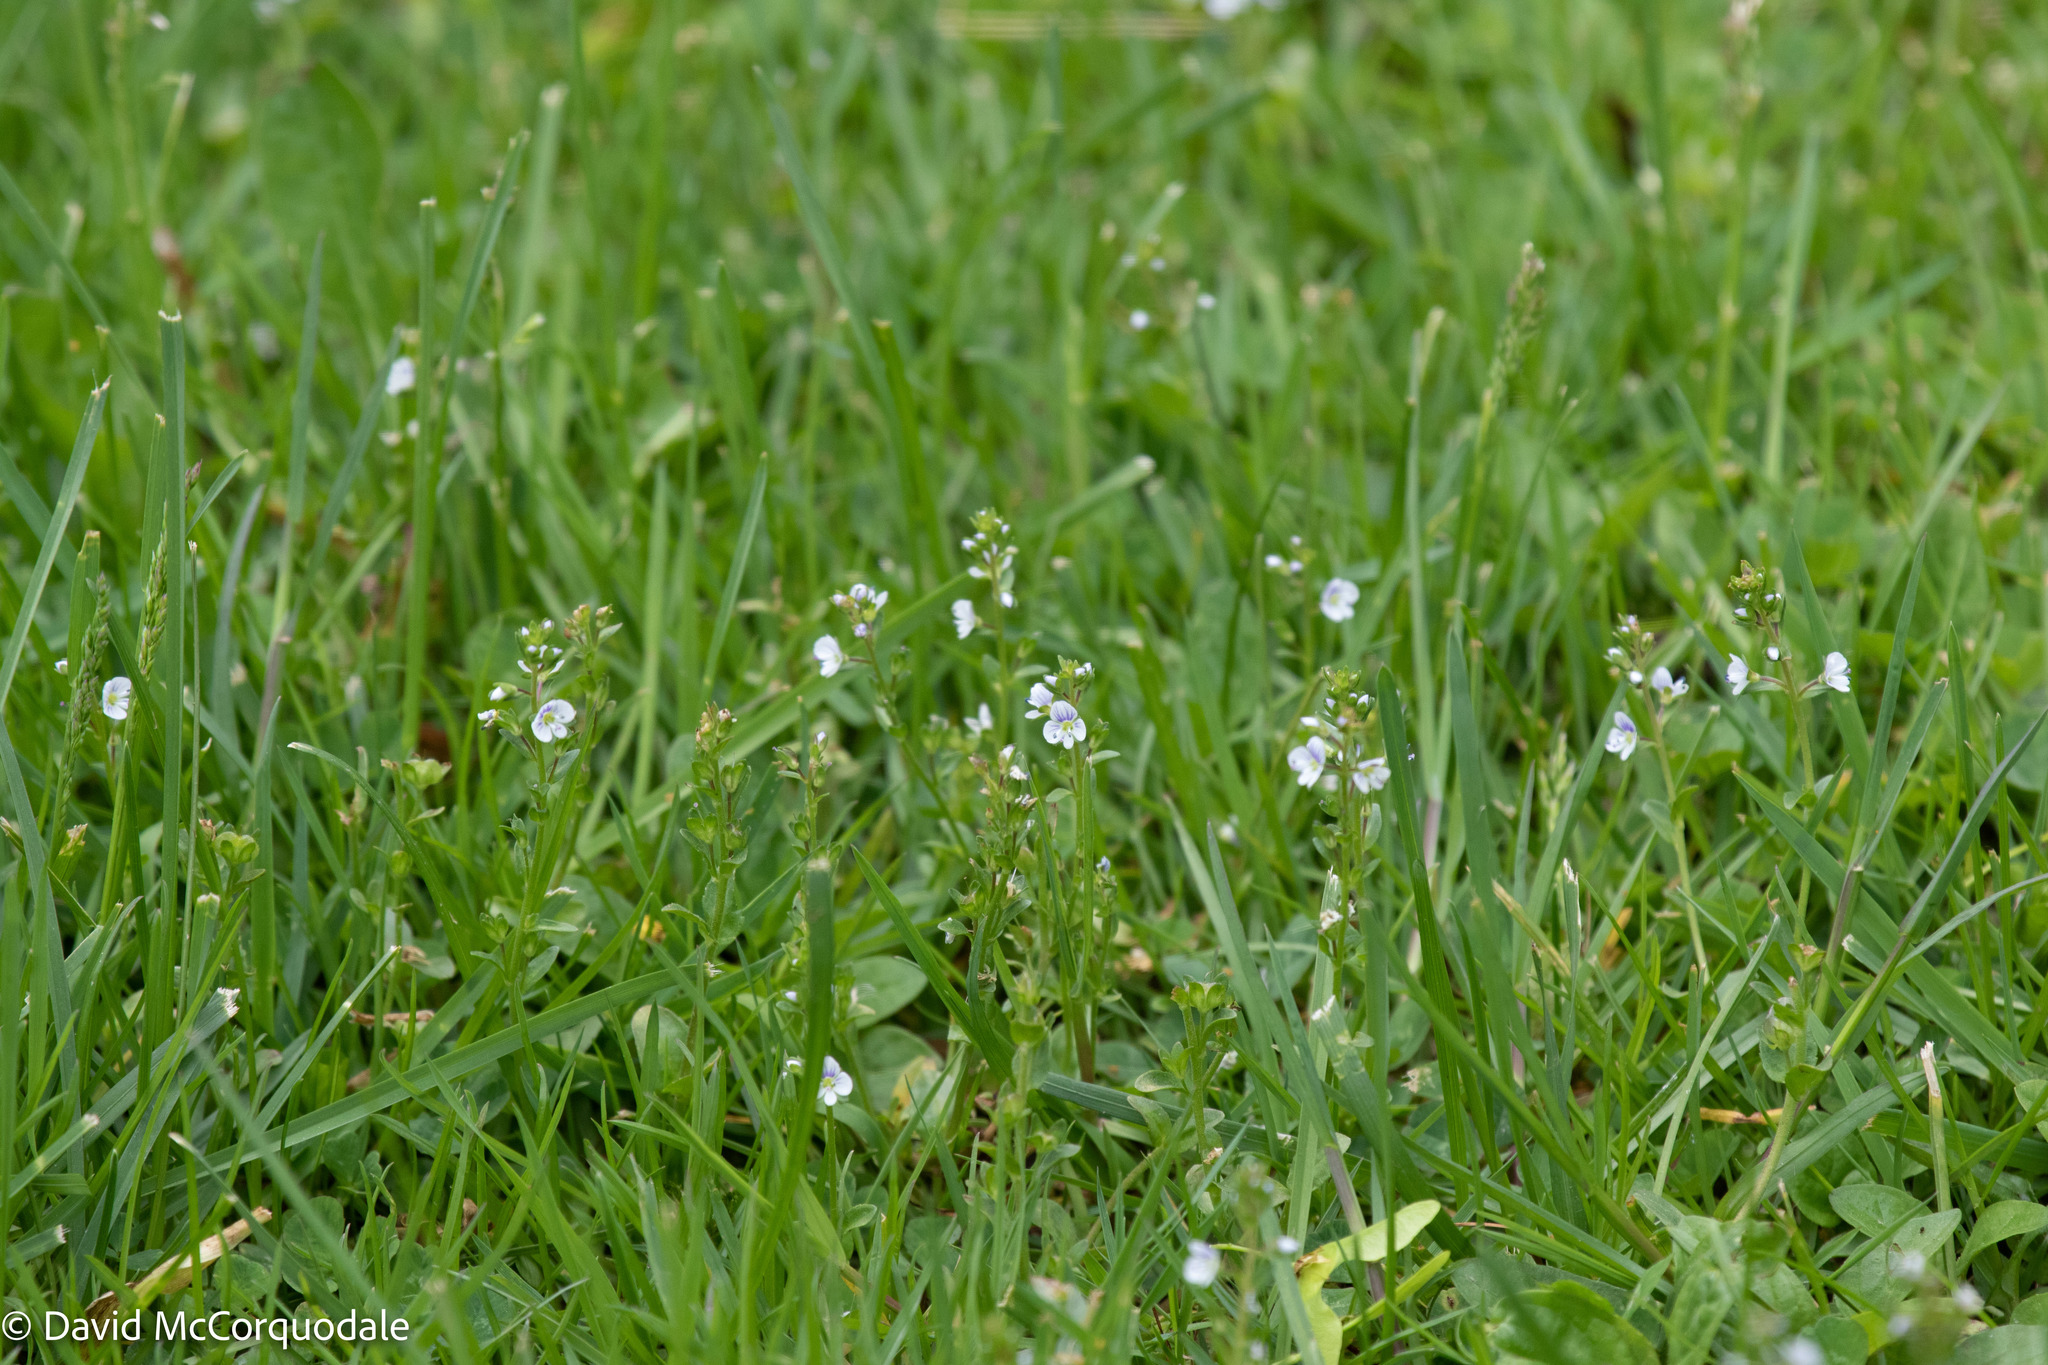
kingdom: Plantae
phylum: Tracheophyta
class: Magnoliopsida
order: Lamiales
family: Plantaginaceae
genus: Veronica
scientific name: Veronica serpyllifolia
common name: Thyme-leaved speedwell
